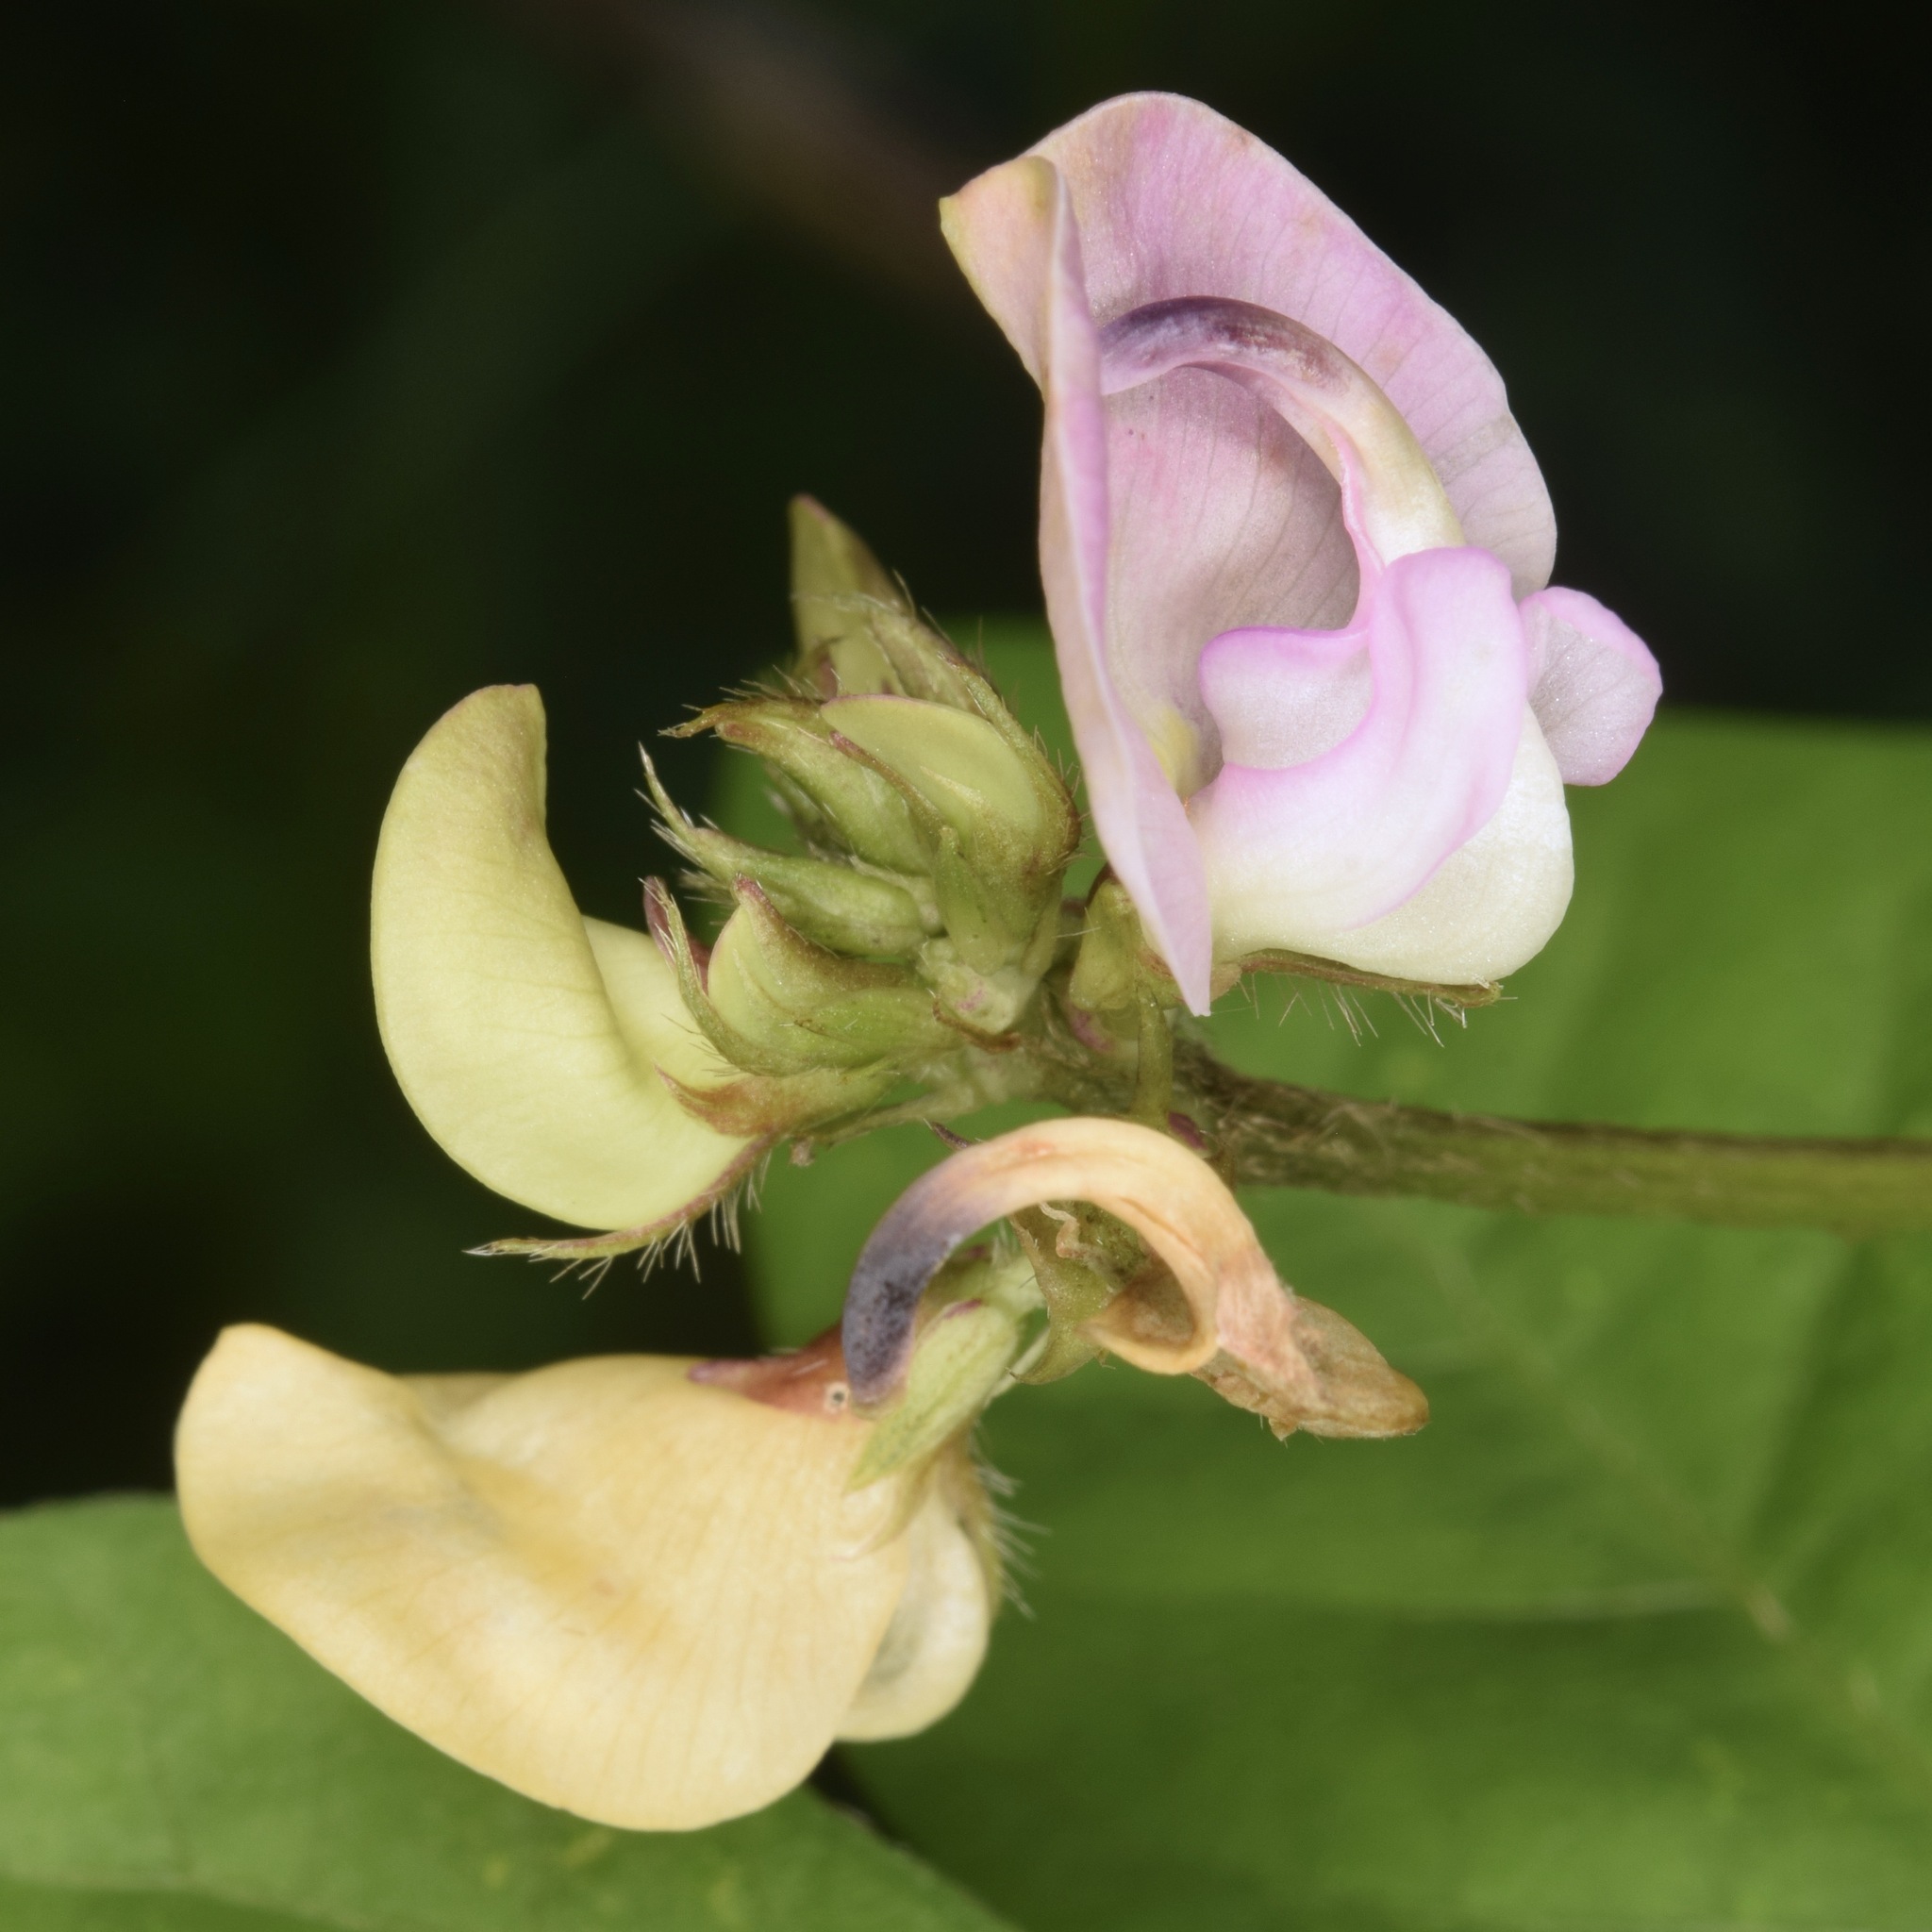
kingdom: Plantae
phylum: Tracheophyta
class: Magnoliopsida
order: Fabales
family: Fabaceae
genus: Strophostyles
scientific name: Strophostyles helvola
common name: Trailing wild bean
